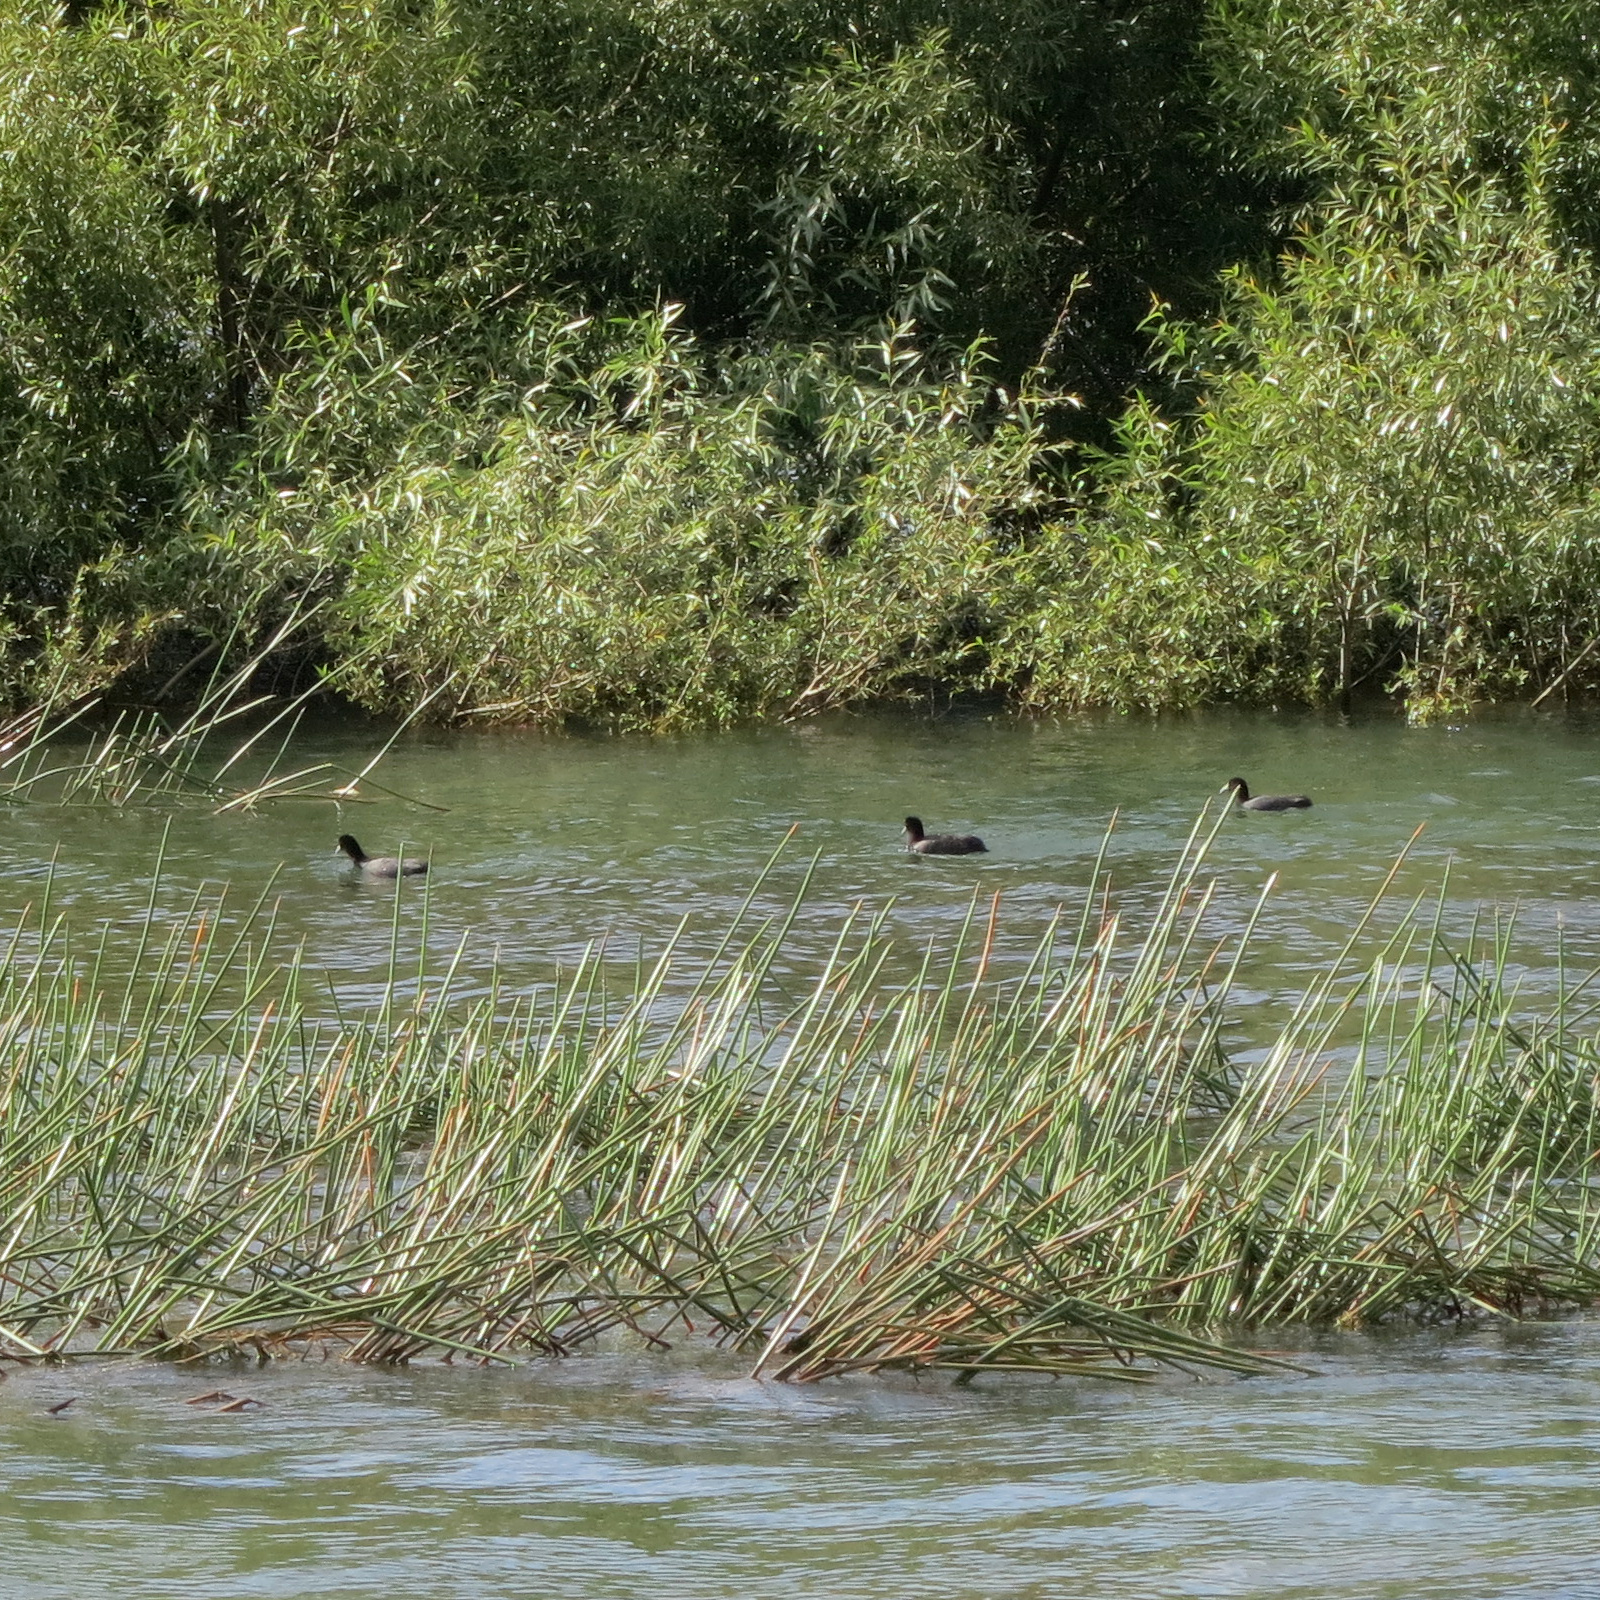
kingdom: Animalia
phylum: Chordata
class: Aves
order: Gruiformes
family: Rallidae
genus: Fulica
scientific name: Fulica atra
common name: Eurasian coot
